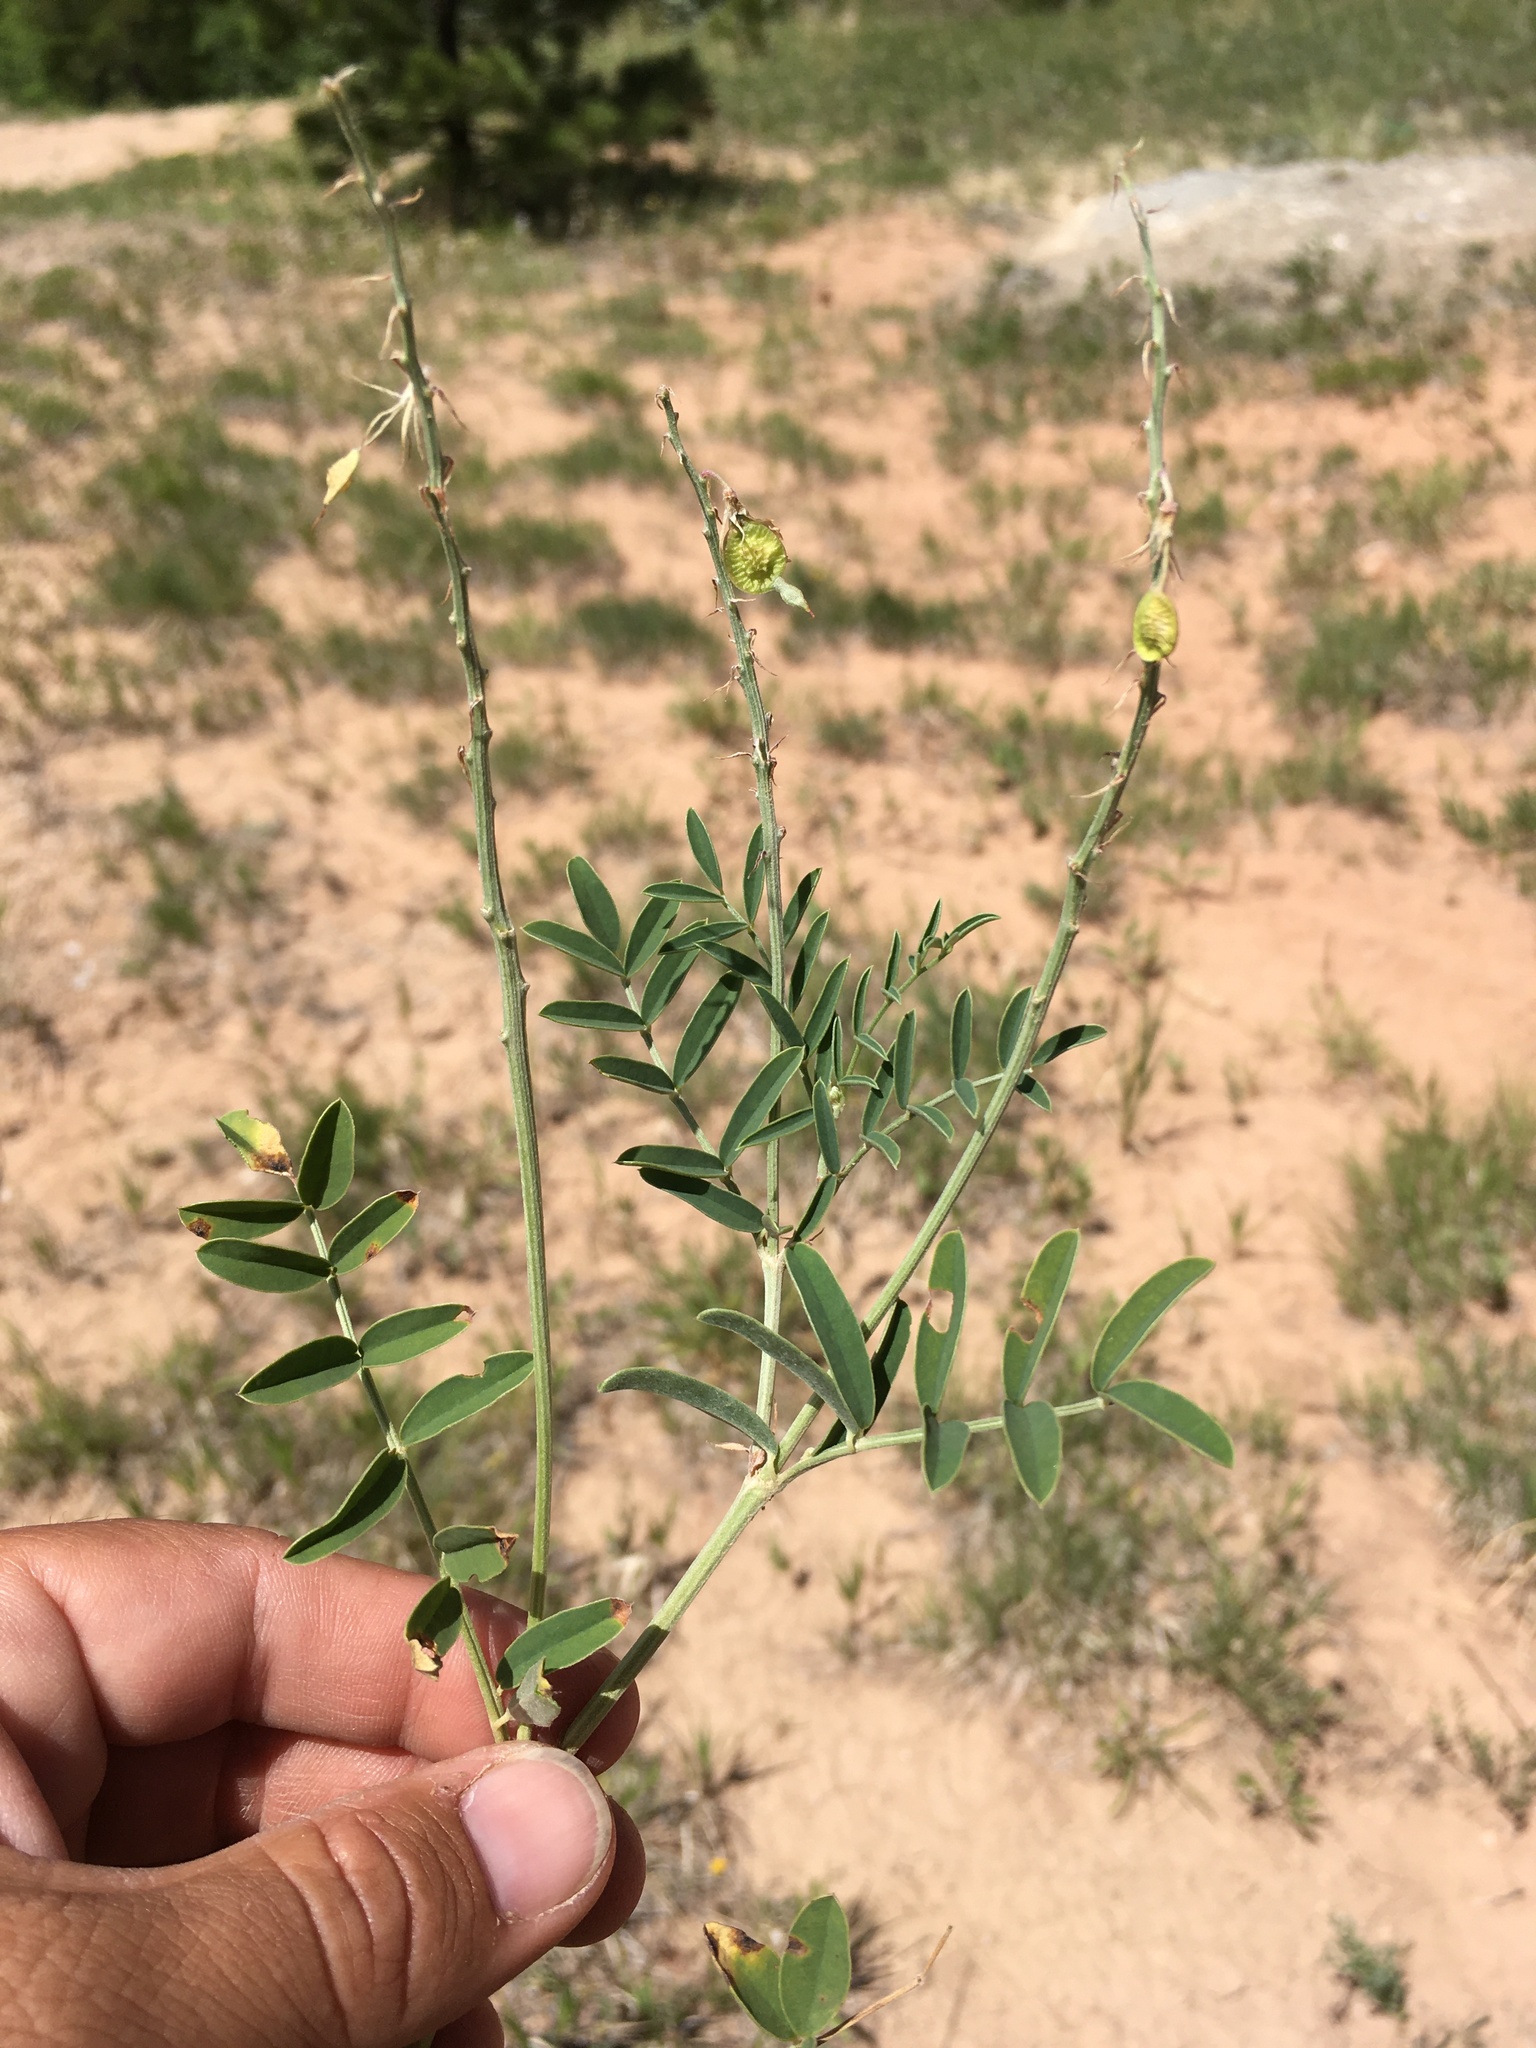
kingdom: Plantae
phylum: Tracheophyta
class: Magnoliopsida
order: Fabales
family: Fabaceae
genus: Hedysarum
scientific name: Hedysarum boreale
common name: Northern sweet-vetch
